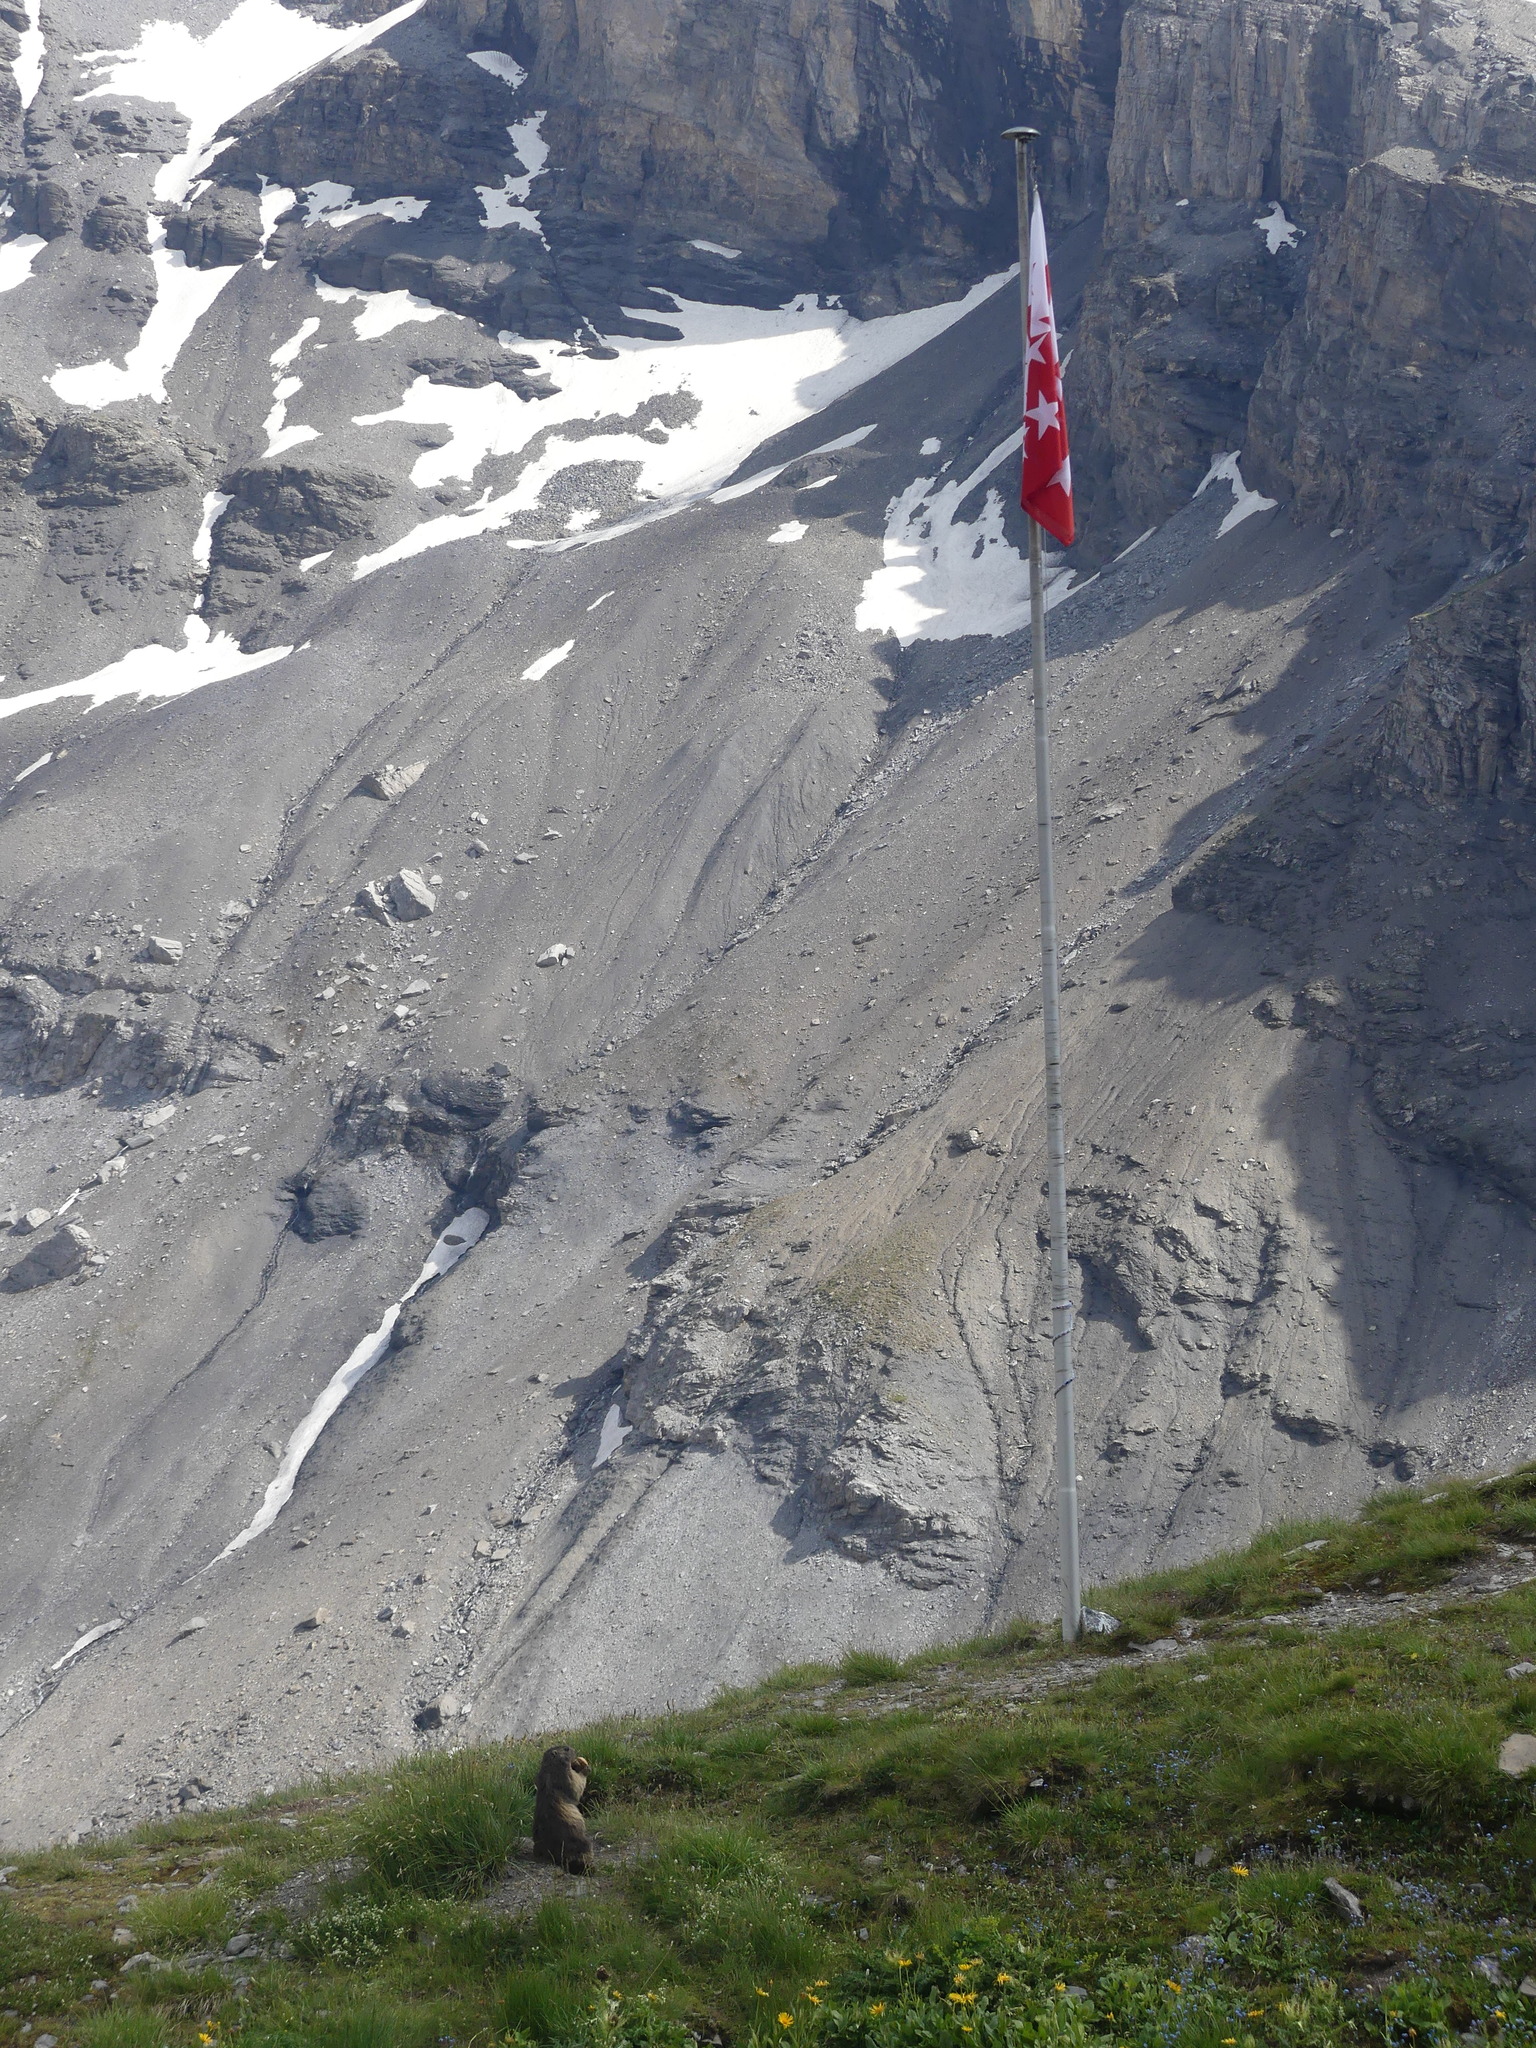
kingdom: Animalia
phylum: Chordata
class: Mammalia
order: Rodentia
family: Sciuridae
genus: Marmota
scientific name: Marmota marmota
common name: Alpine marmot
